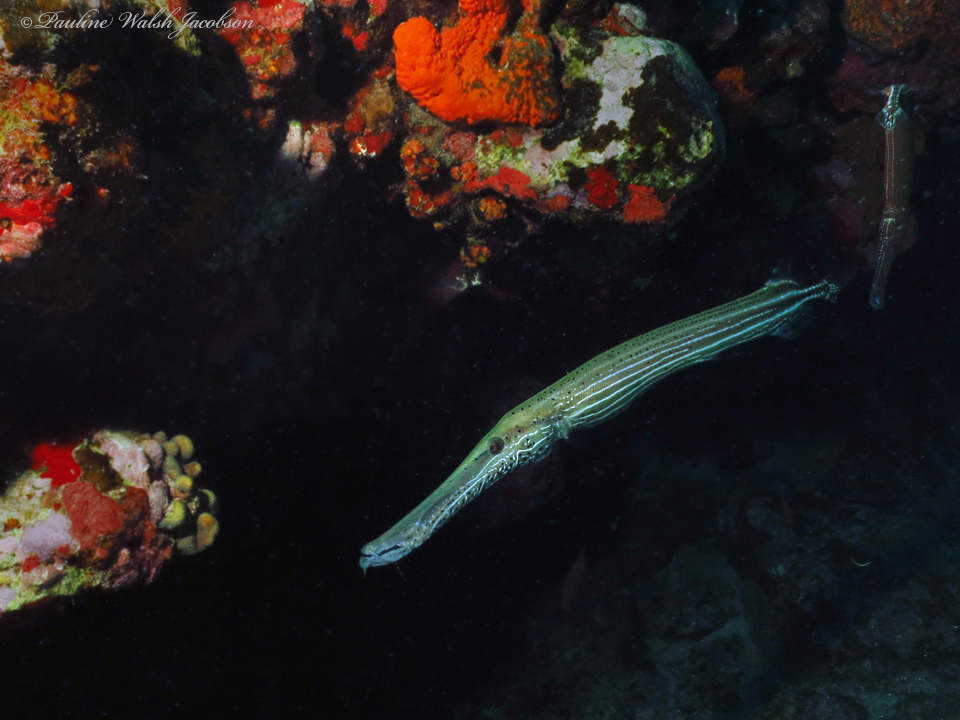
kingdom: Animalia
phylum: Chordata
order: Syngnathiformes
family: Aulostomidae
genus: Aulostomus
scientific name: Aulostomus maculatus
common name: West atlantic trumpetfish
